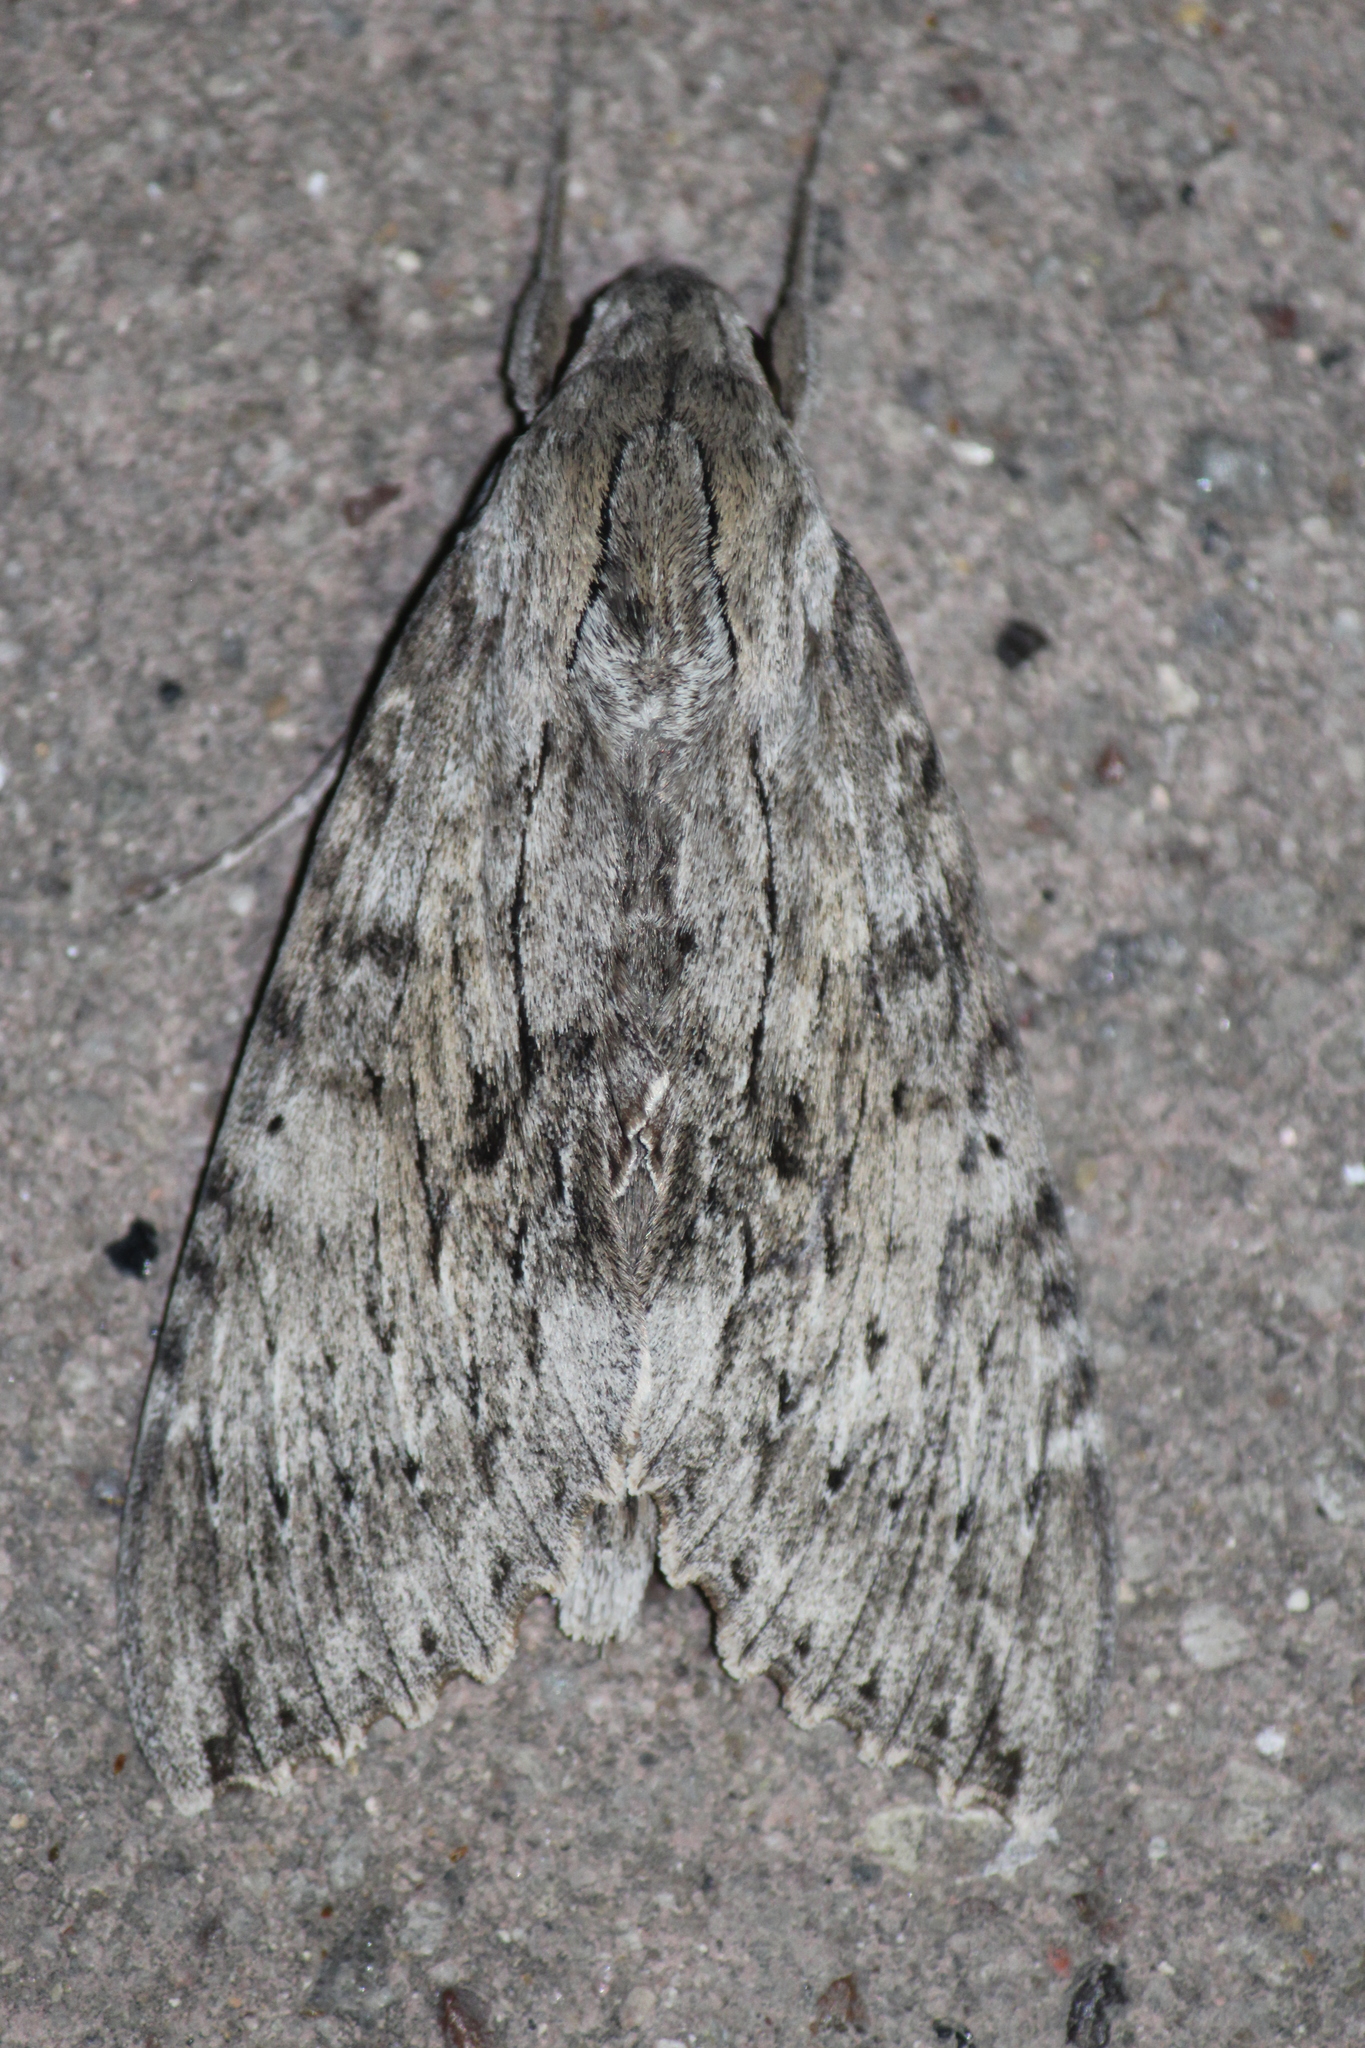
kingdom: Animalia
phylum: Arthropoda
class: Insecta
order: Lepidoptera
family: Sphingidae
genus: Erinnyis
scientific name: Erinnyis ello
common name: Ello sphinx
